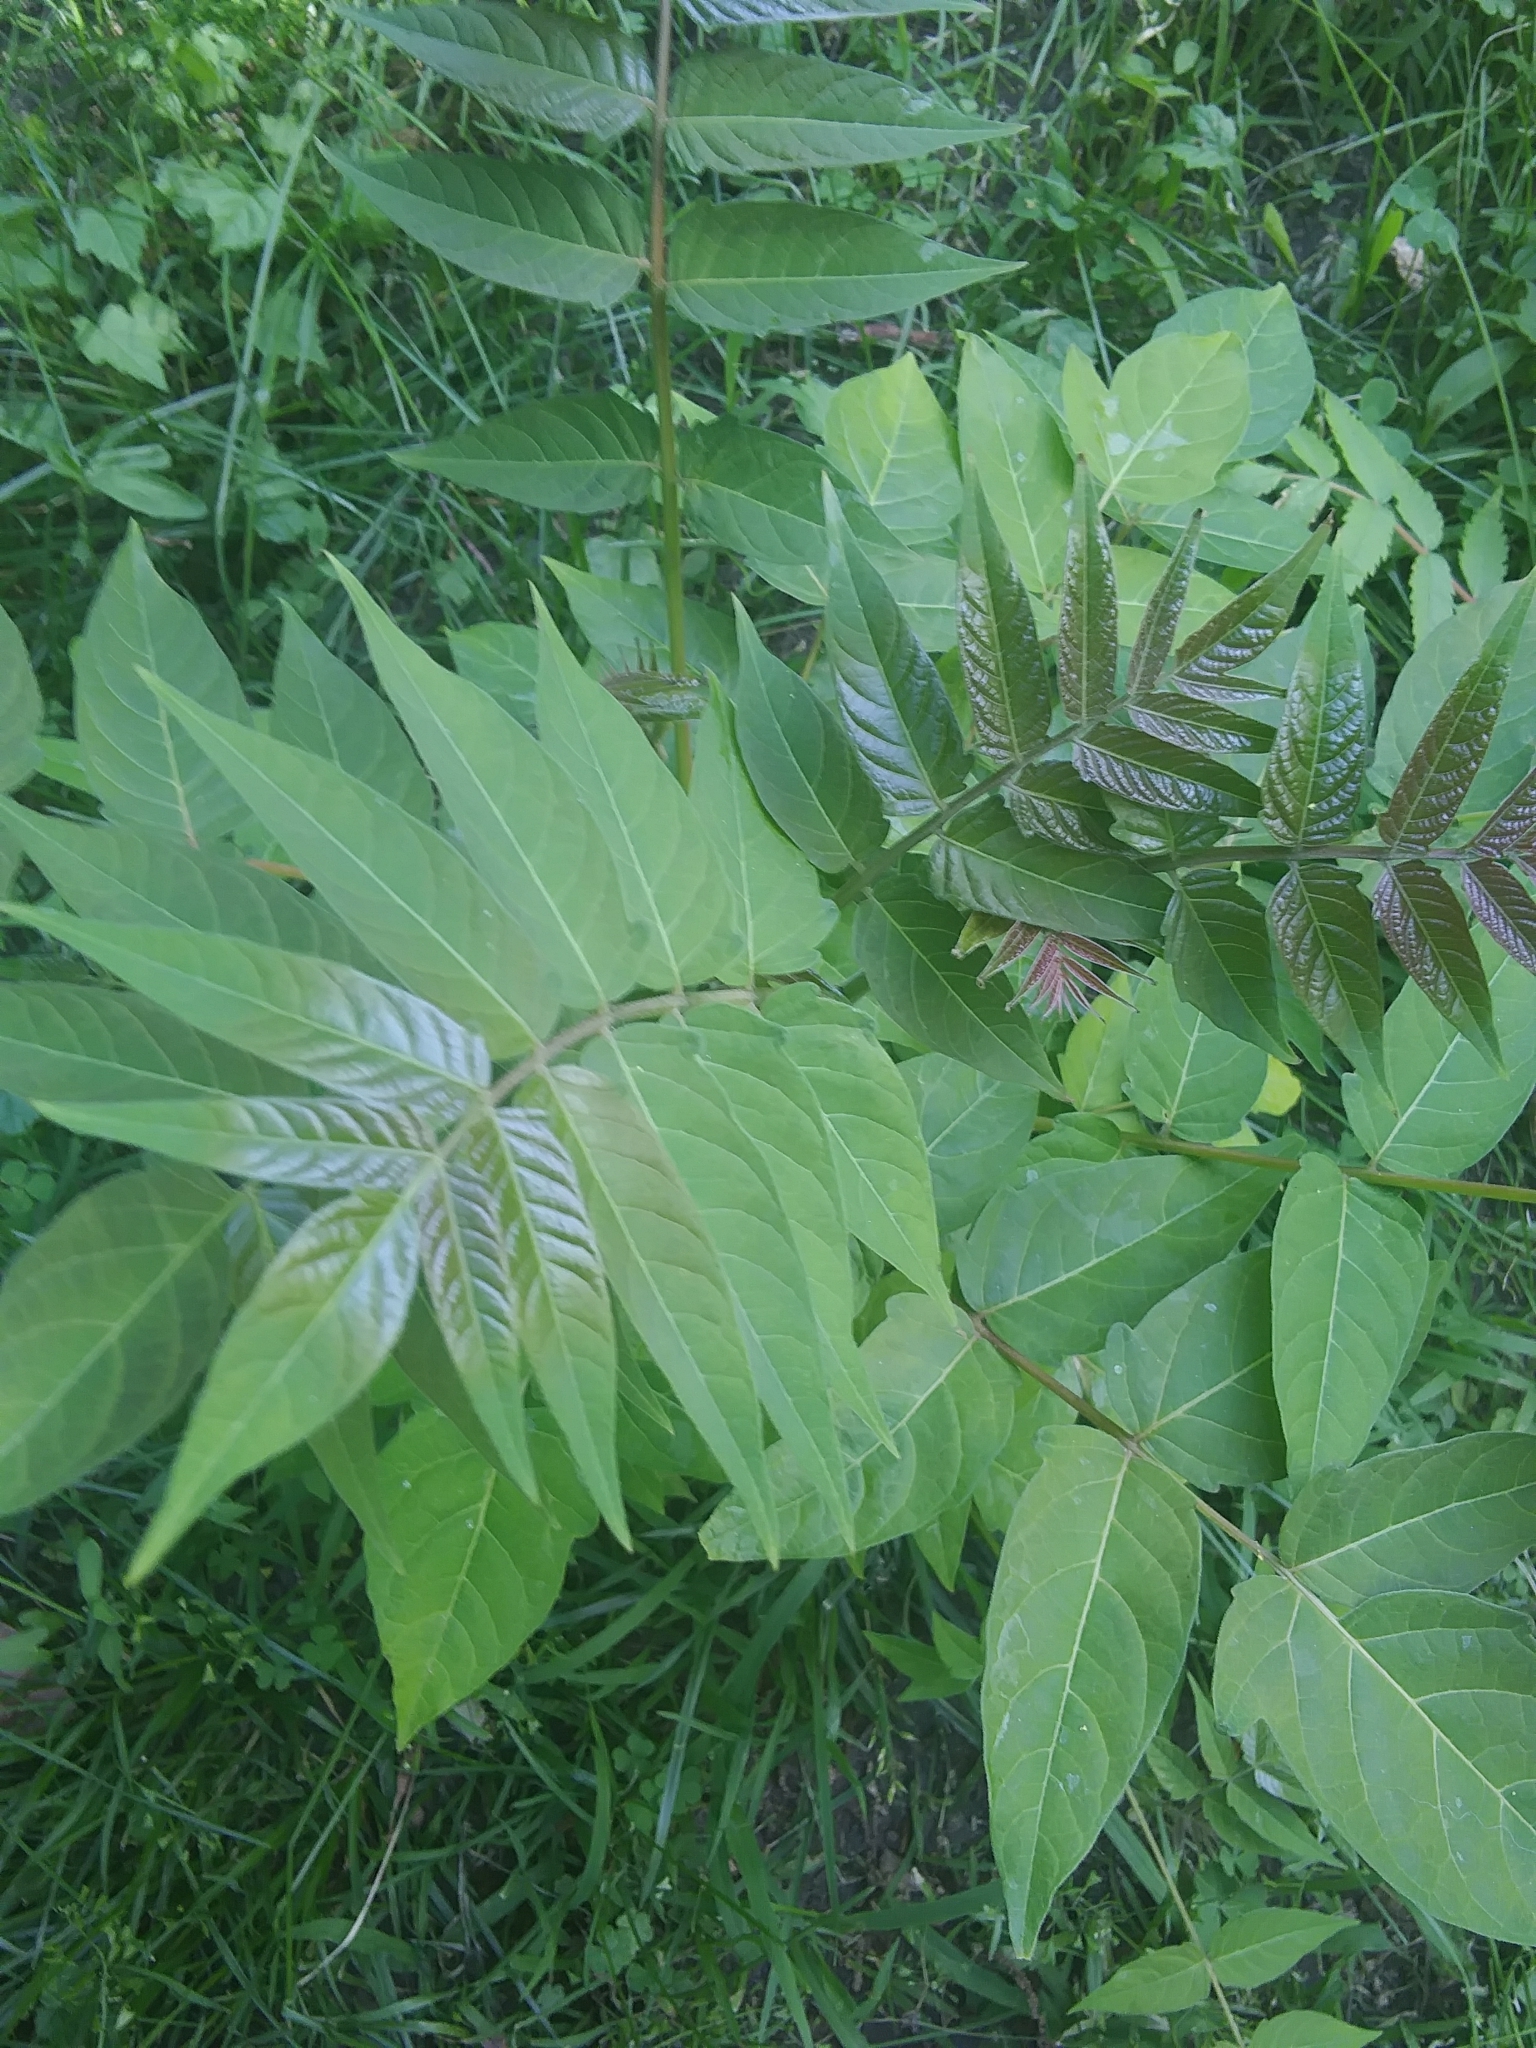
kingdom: Plantae
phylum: Tracheophyta
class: Magnoliopsida
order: Sapindales
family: Simaroubaceae
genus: Ailanthus
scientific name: Ailanthus altissima
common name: Tree-of-heaven
